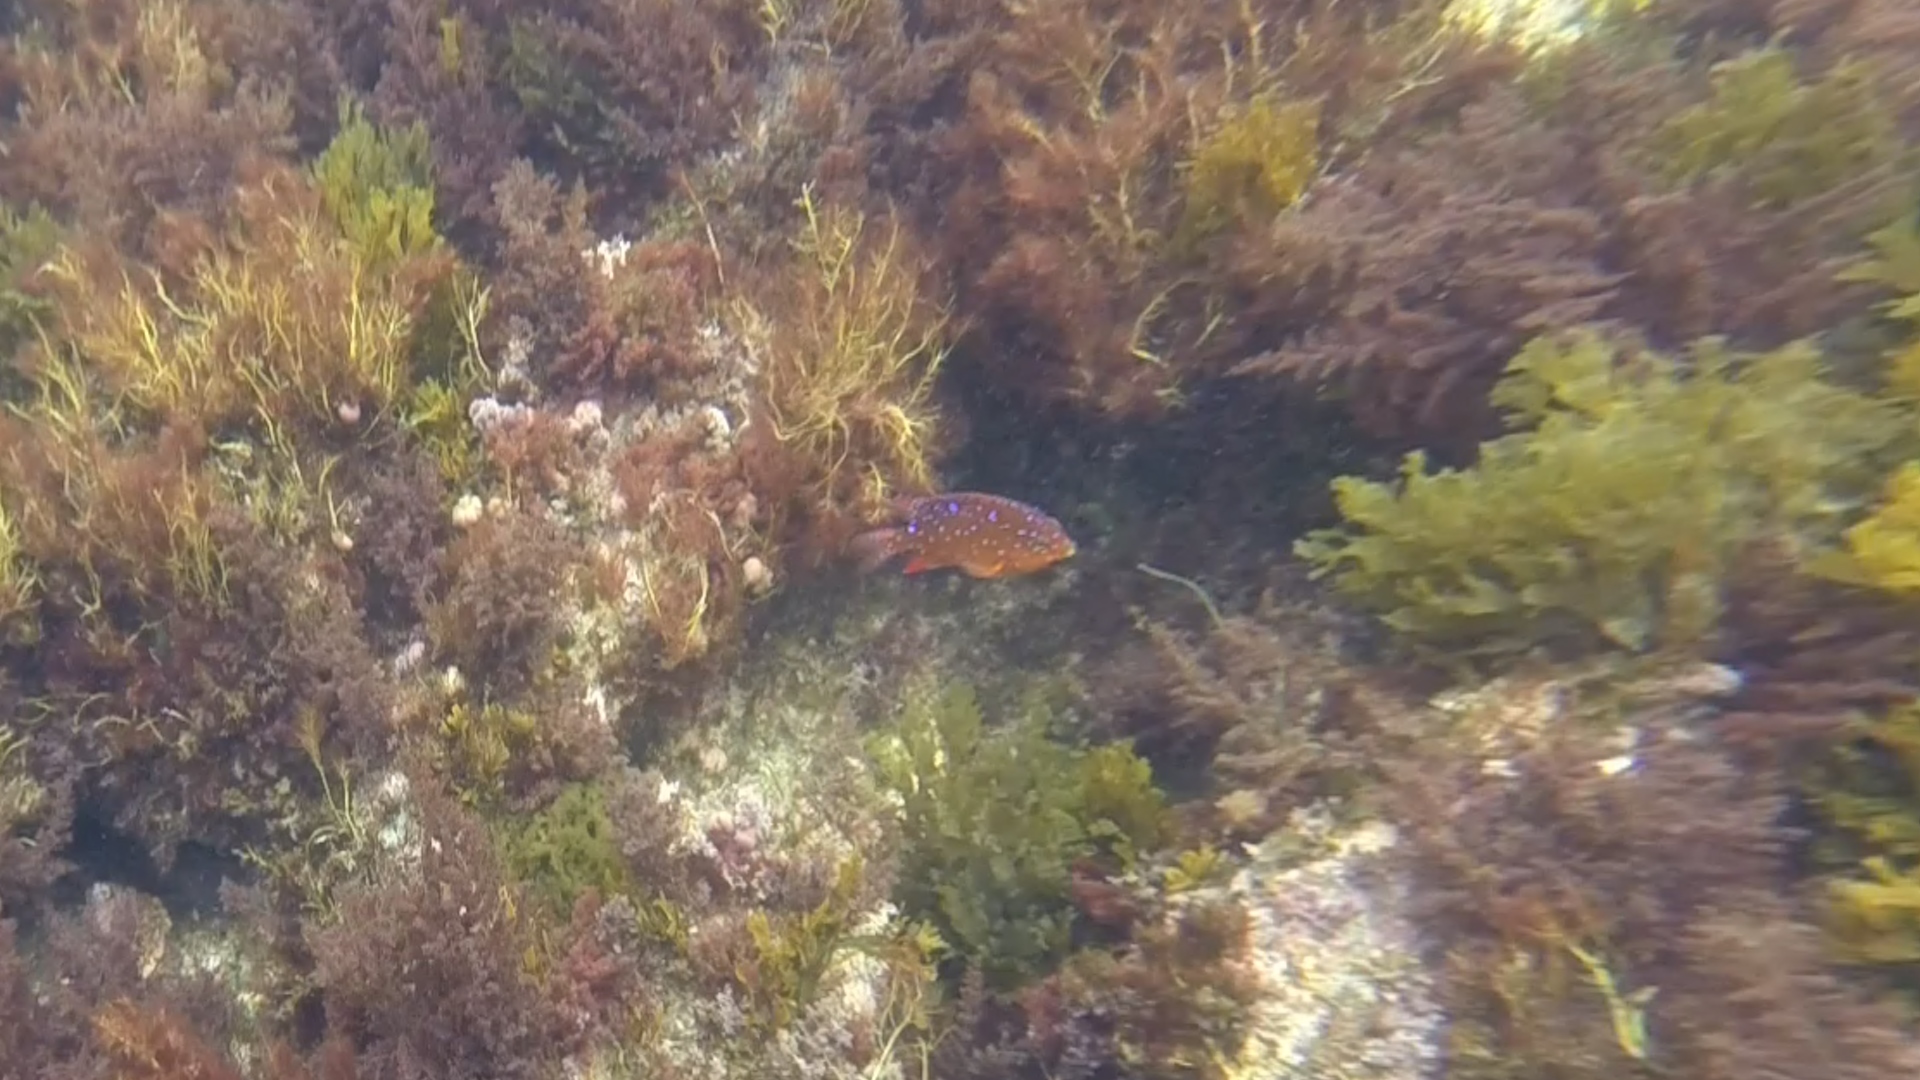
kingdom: Animalia
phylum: Chordata
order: Perciformes
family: Pomacentridae
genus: Hypsypops
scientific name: Hypsypops rubicundus
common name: Garibaldi
